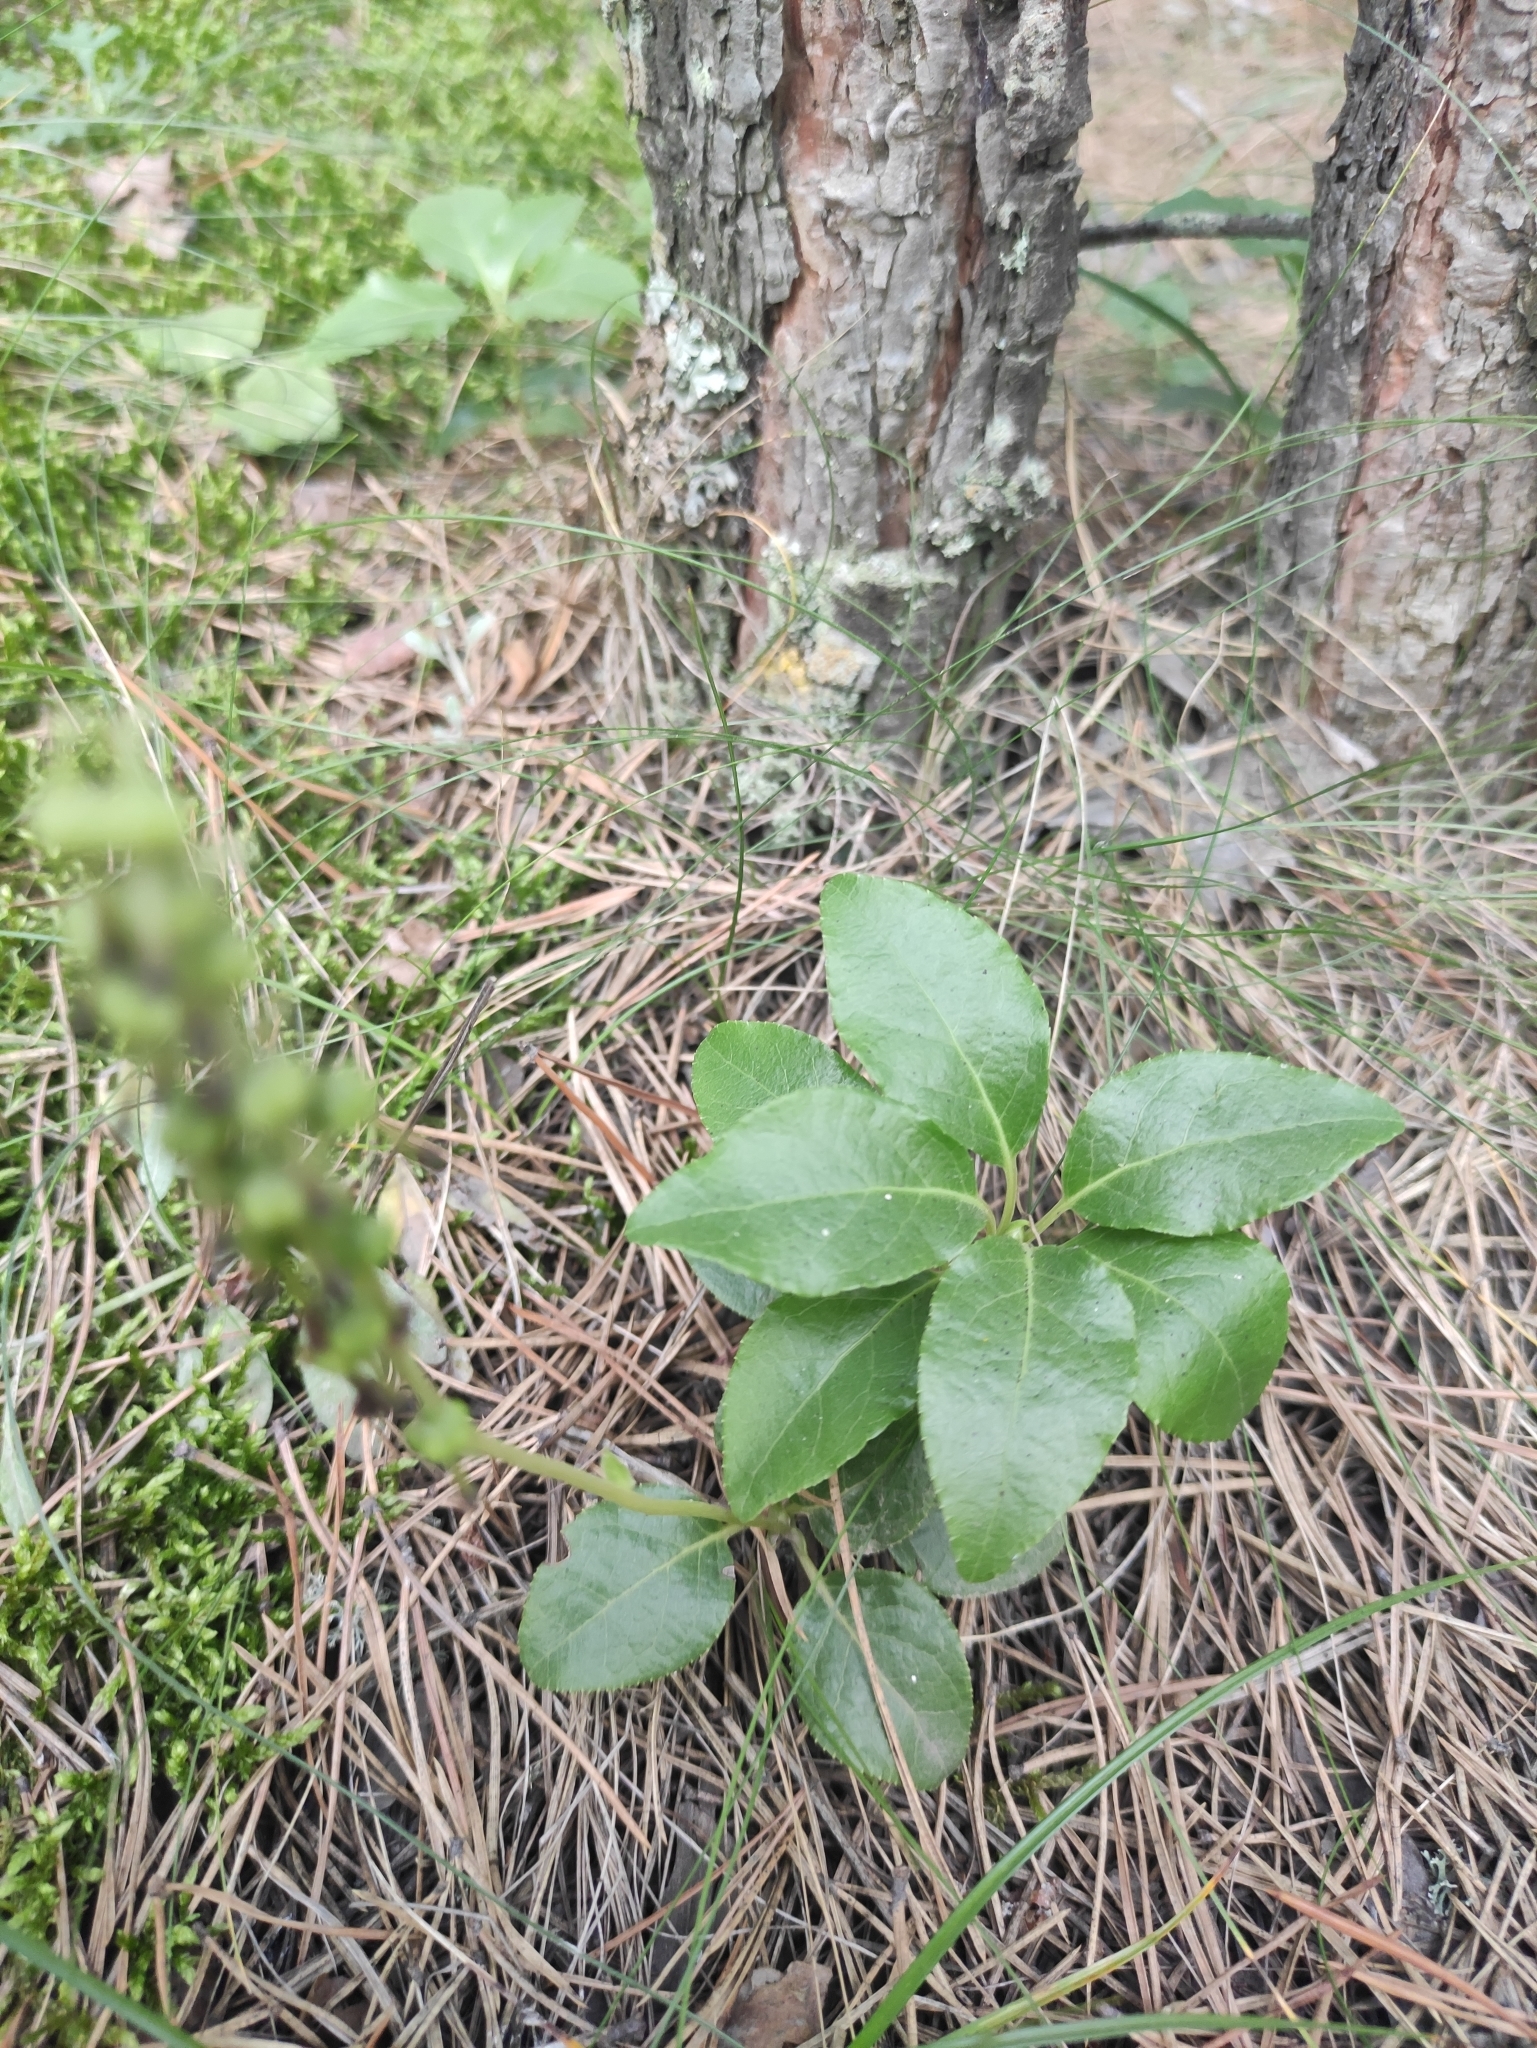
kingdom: Plantae
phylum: Tracheophyta
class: Magnoliopsida
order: Ericales
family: Ericaceae
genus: Orthilia
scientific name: Orthilia secunda
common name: One-sided orthilia
